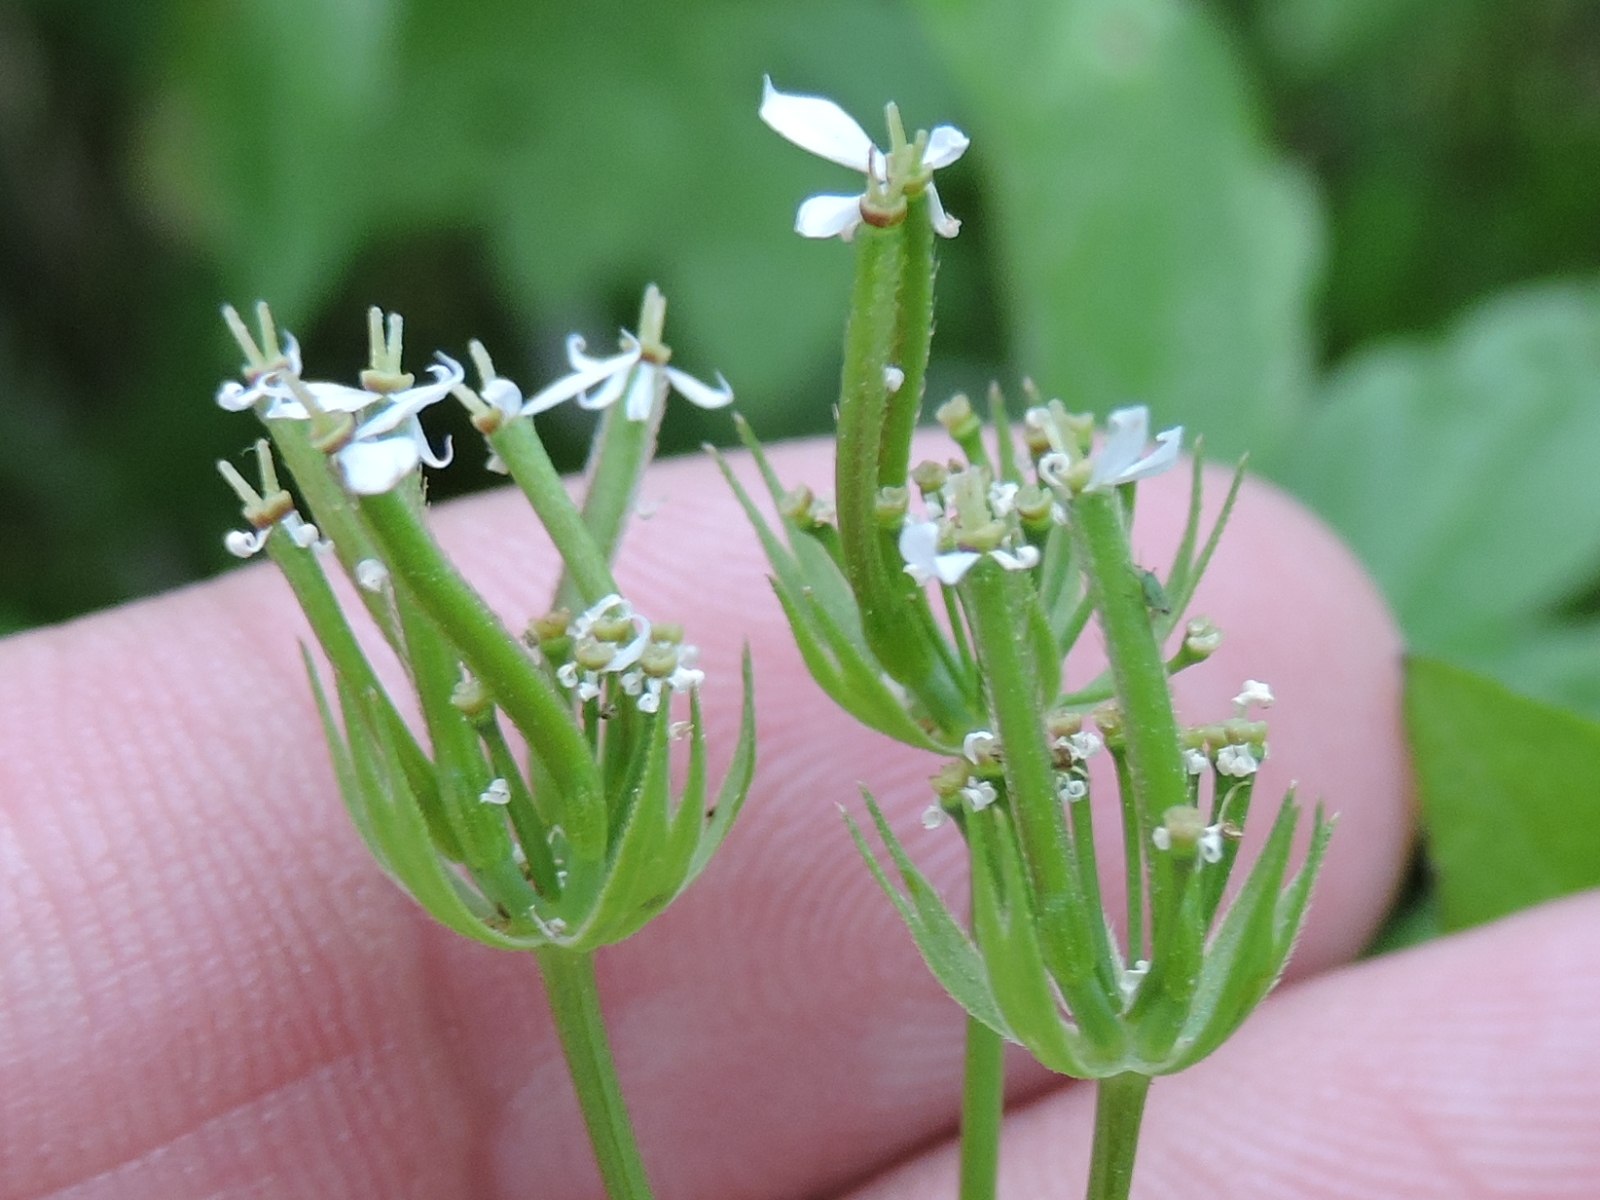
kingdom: Plantae
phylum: Tracheophyta
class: Magnoliopsida
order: Apiales
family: Apiaceae
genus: Scandix
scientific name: Scandix pecten-veneris
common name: Shepherd's-needle
